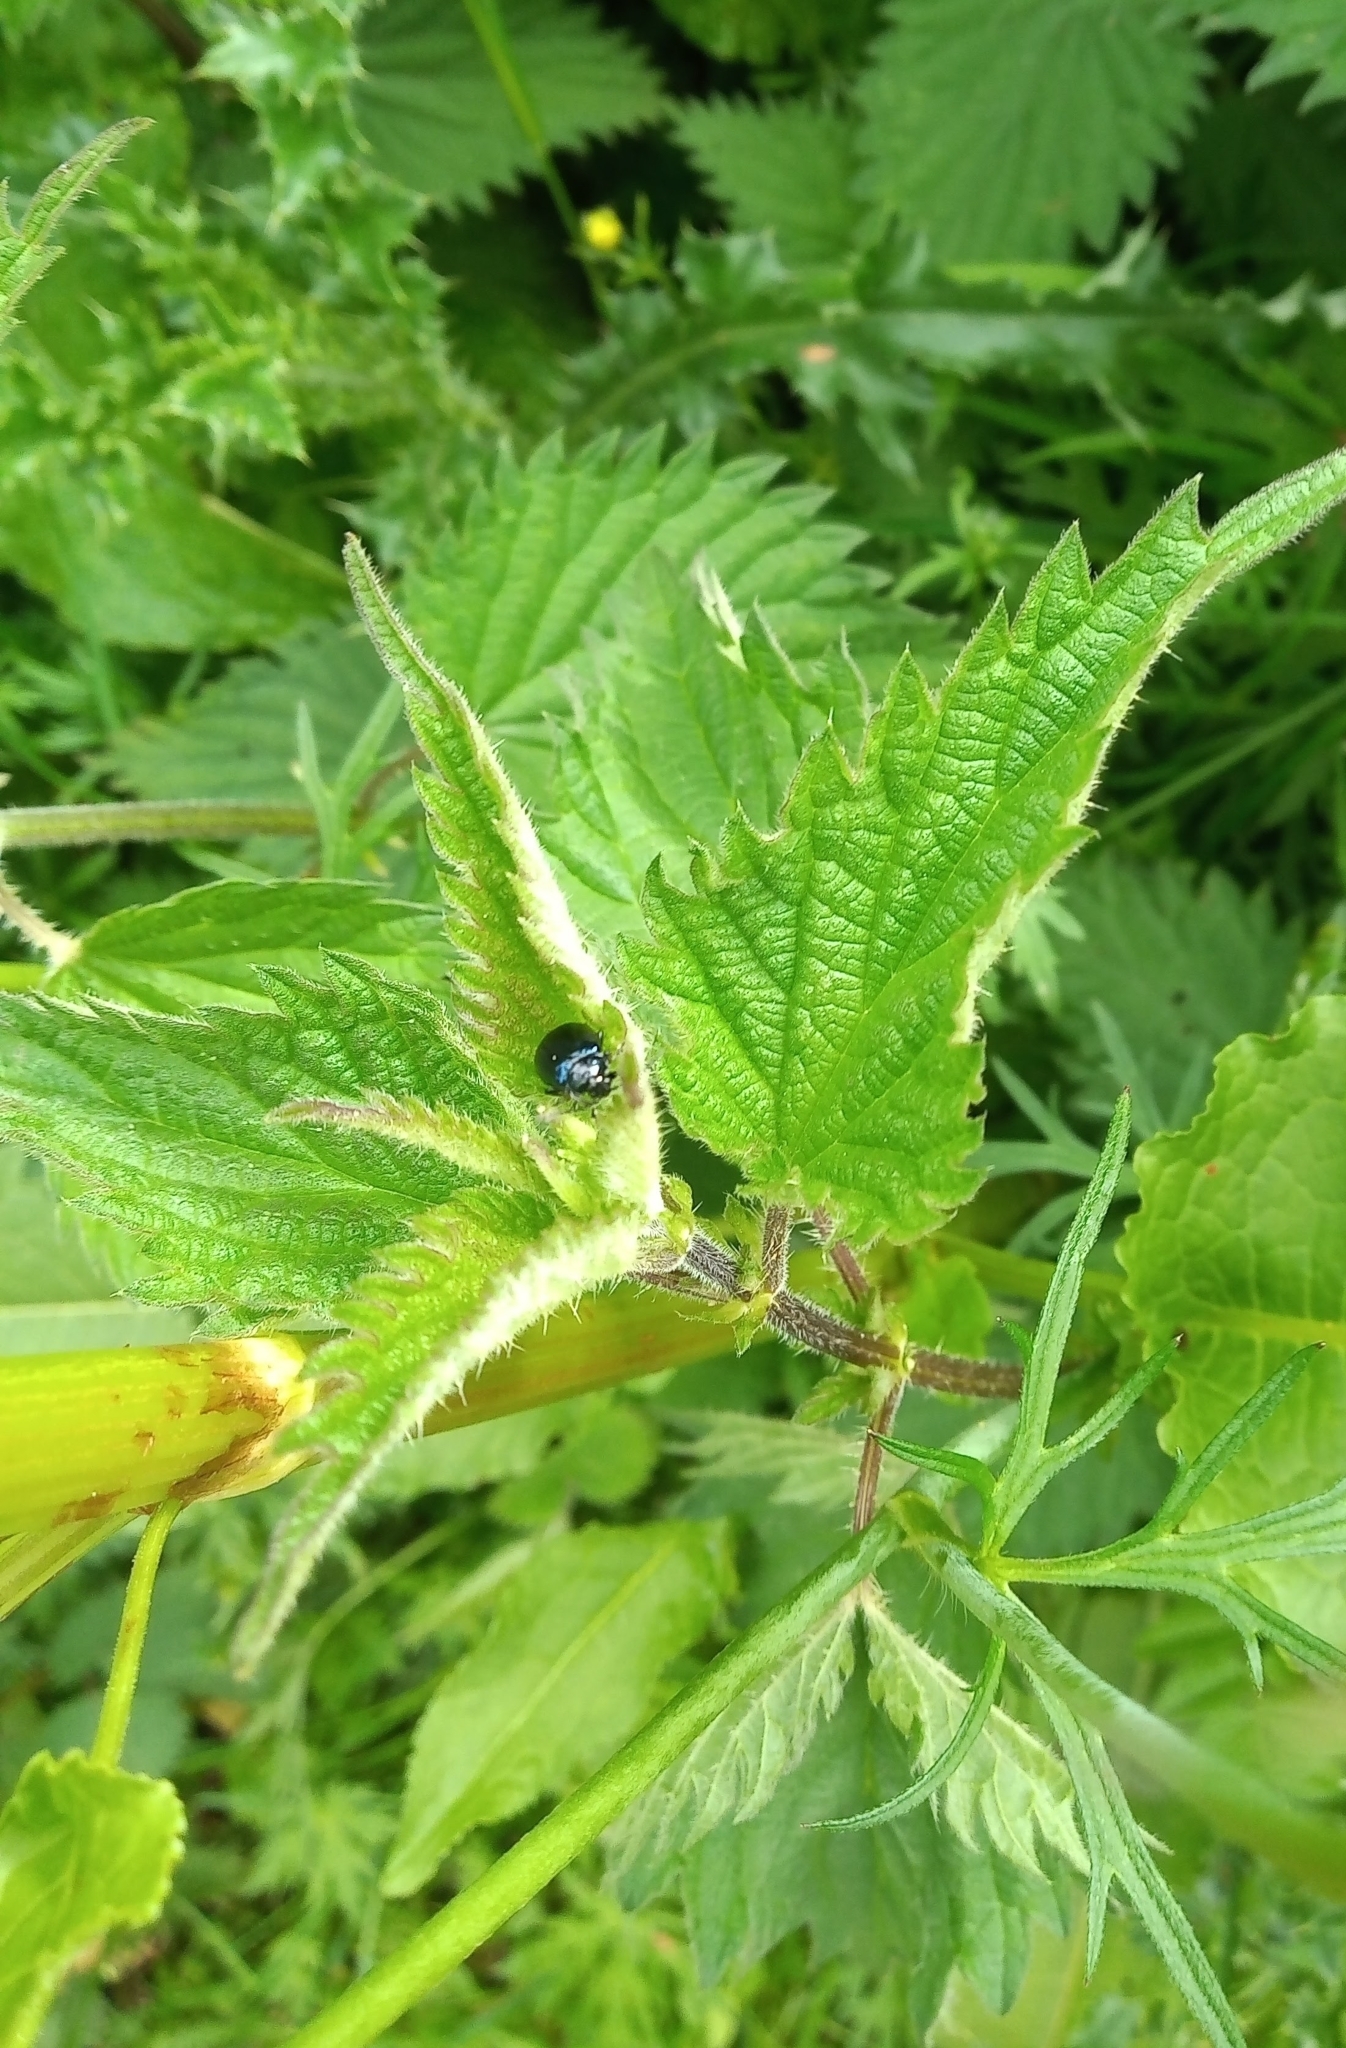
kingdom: Animalia
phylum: Arthropoda
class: Insecta
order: Coleoptera
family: Chrysomelidae
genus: Agelastica
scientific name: Agelastica alni
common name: Alder leaf beetle
